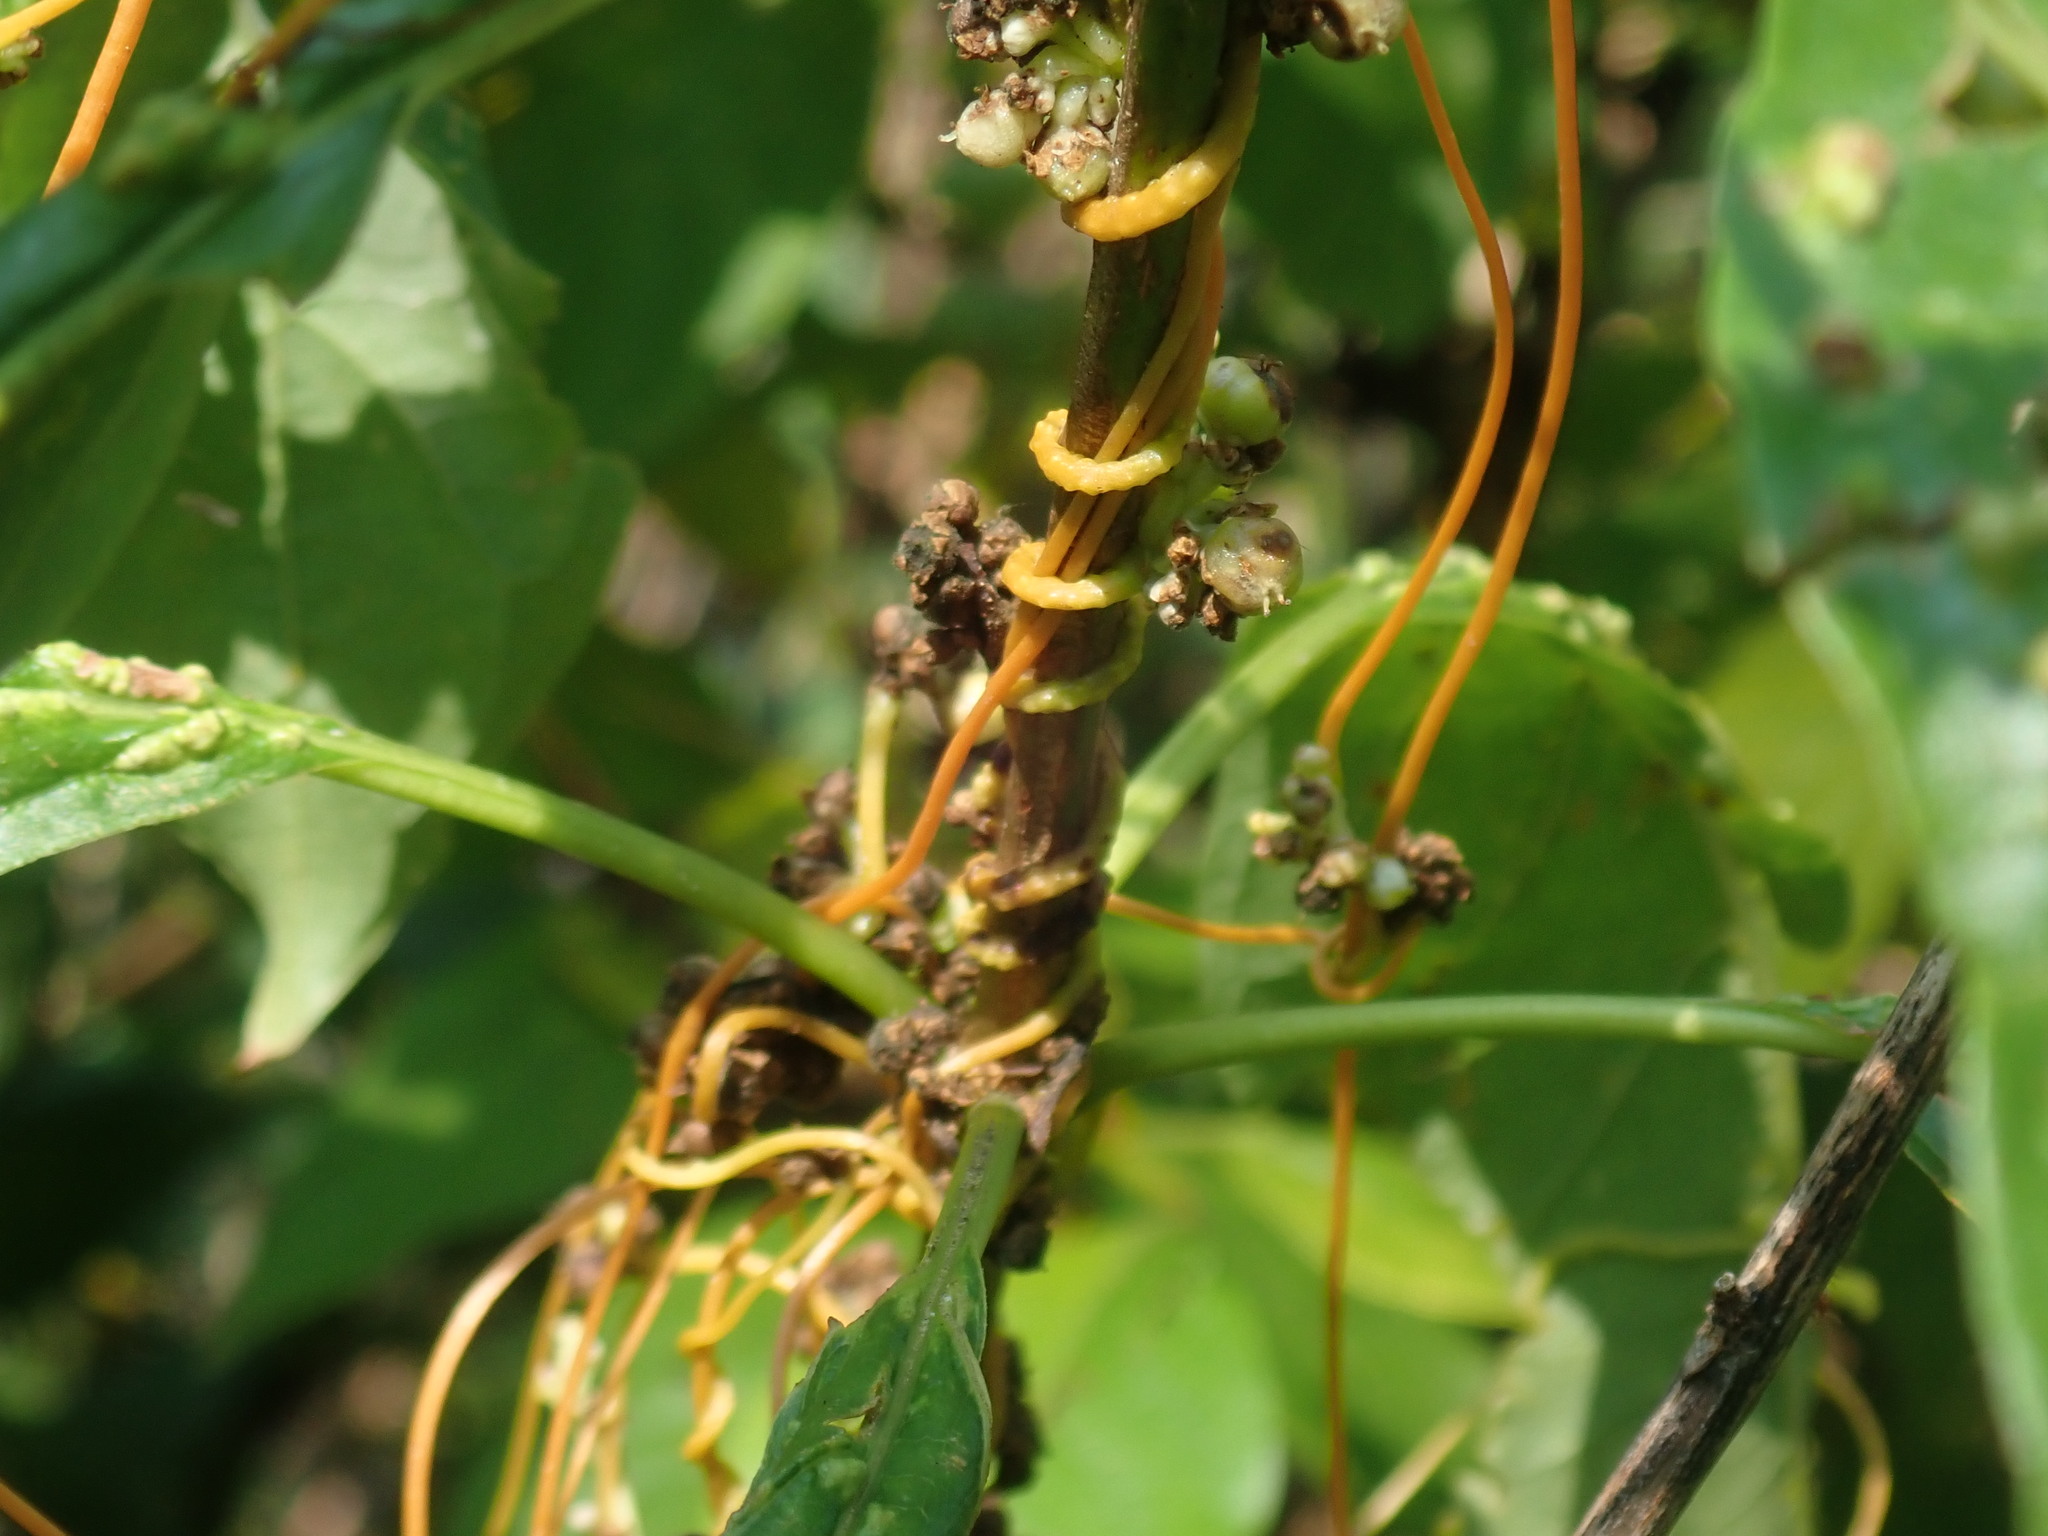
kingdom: Plantae
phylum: Tracheophyta
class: Magnoliopsida
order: Solanales
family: Convolvulaceae
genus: Cuscuta
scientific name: Cuscuta
